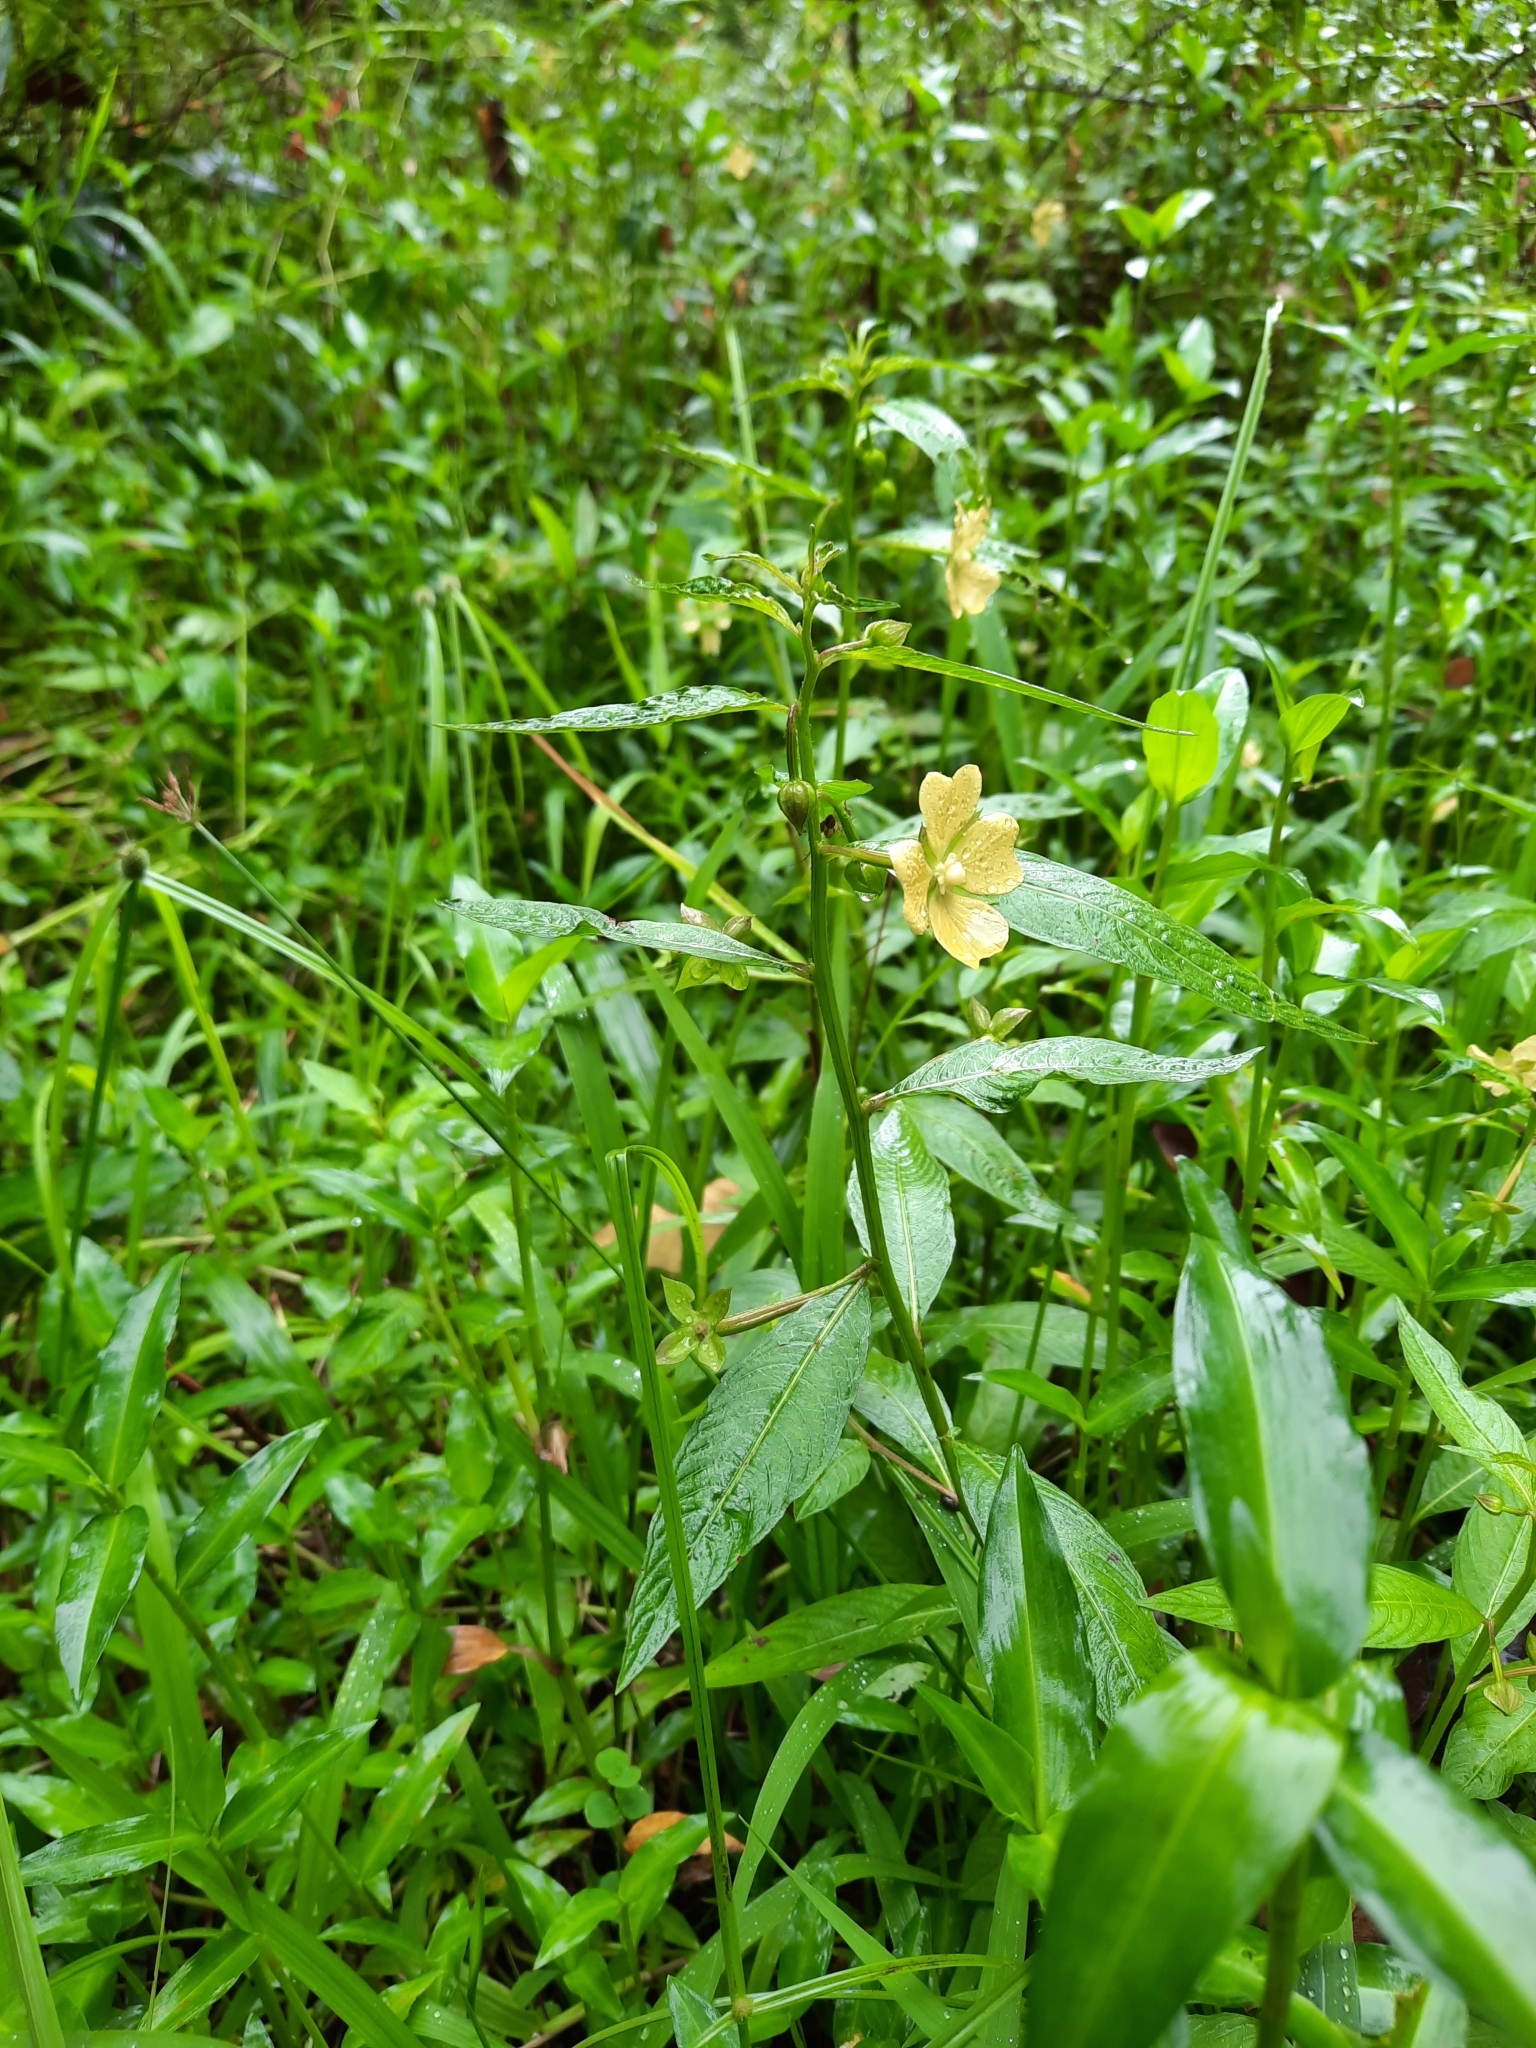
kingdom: Plantae
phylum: Tracheophyta
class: Magnoliopsida
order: Myrtales
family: Onagraceae
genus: Ludwigia
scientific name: Ludwigia octovalvis
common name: Water-primrose
